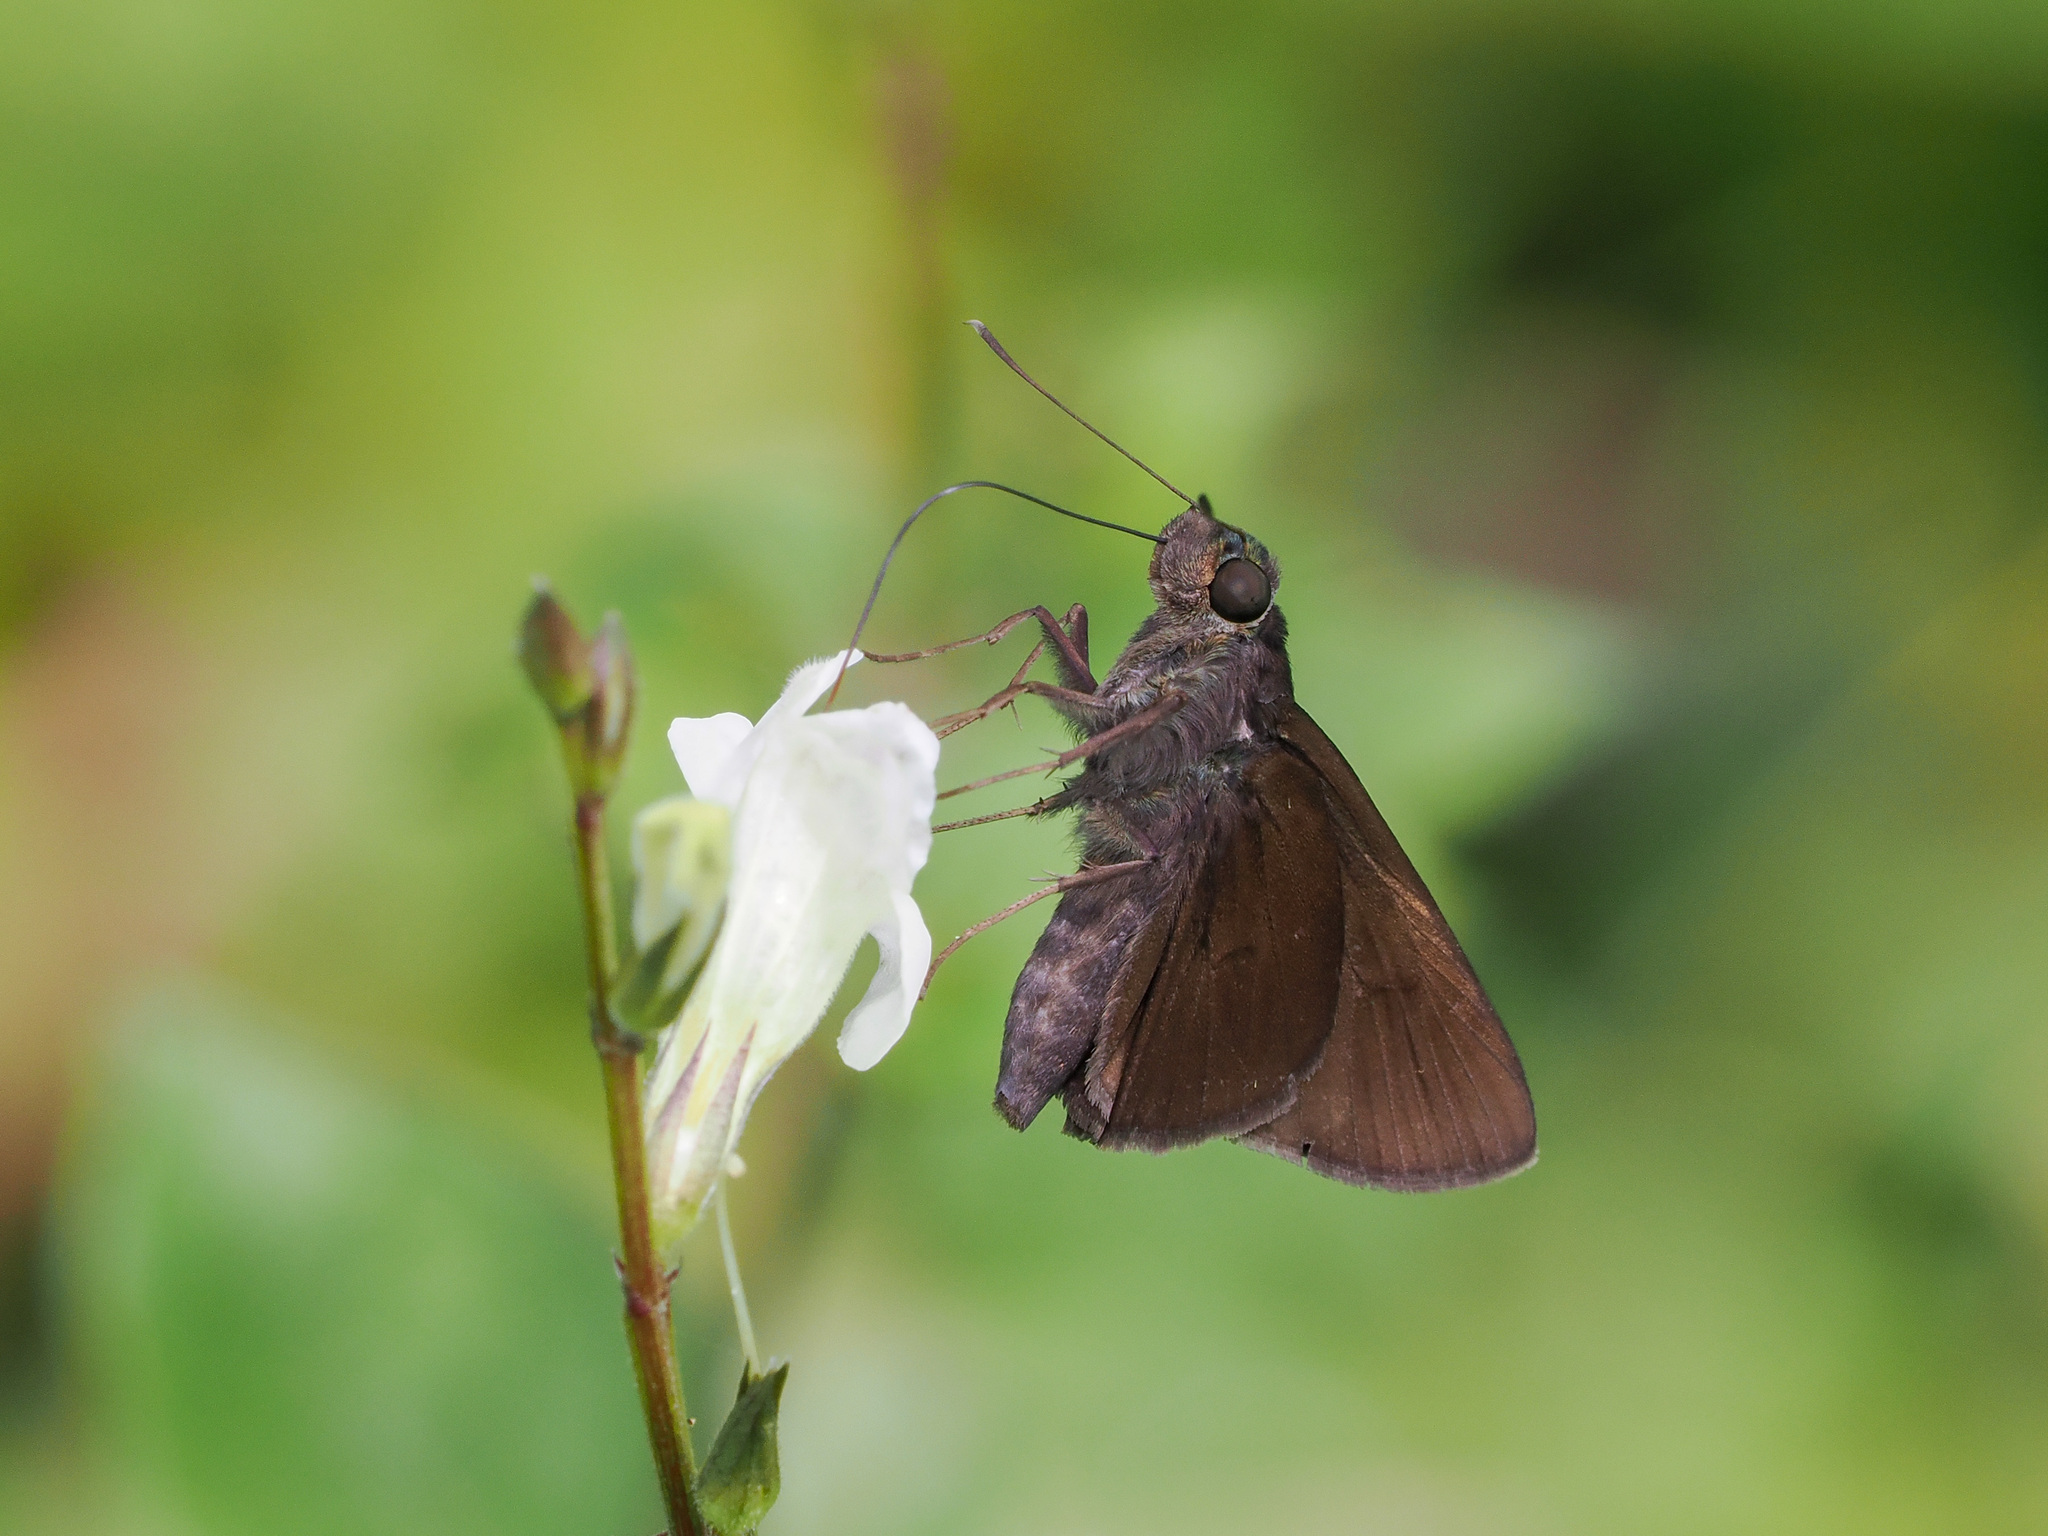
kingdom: Animalia
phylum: Arthropoda
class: Insecta
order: Lepidoptera
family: Hesperiidae
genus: Quedara
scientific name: Quedara monteithi
